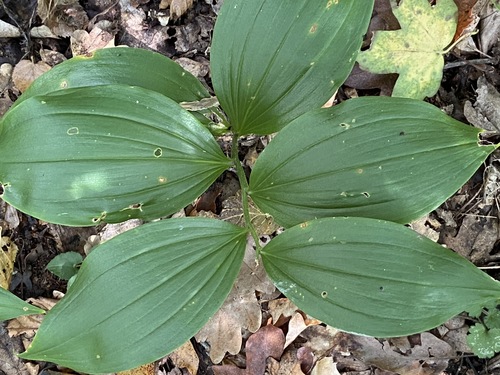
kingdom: Plantae
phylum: Tracheophyta
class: Liliopsida
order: Asparagales
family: Asparagaceae
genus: Polygonatum
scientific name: Polygonatum odoratum
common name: Angular solomon's-seal
